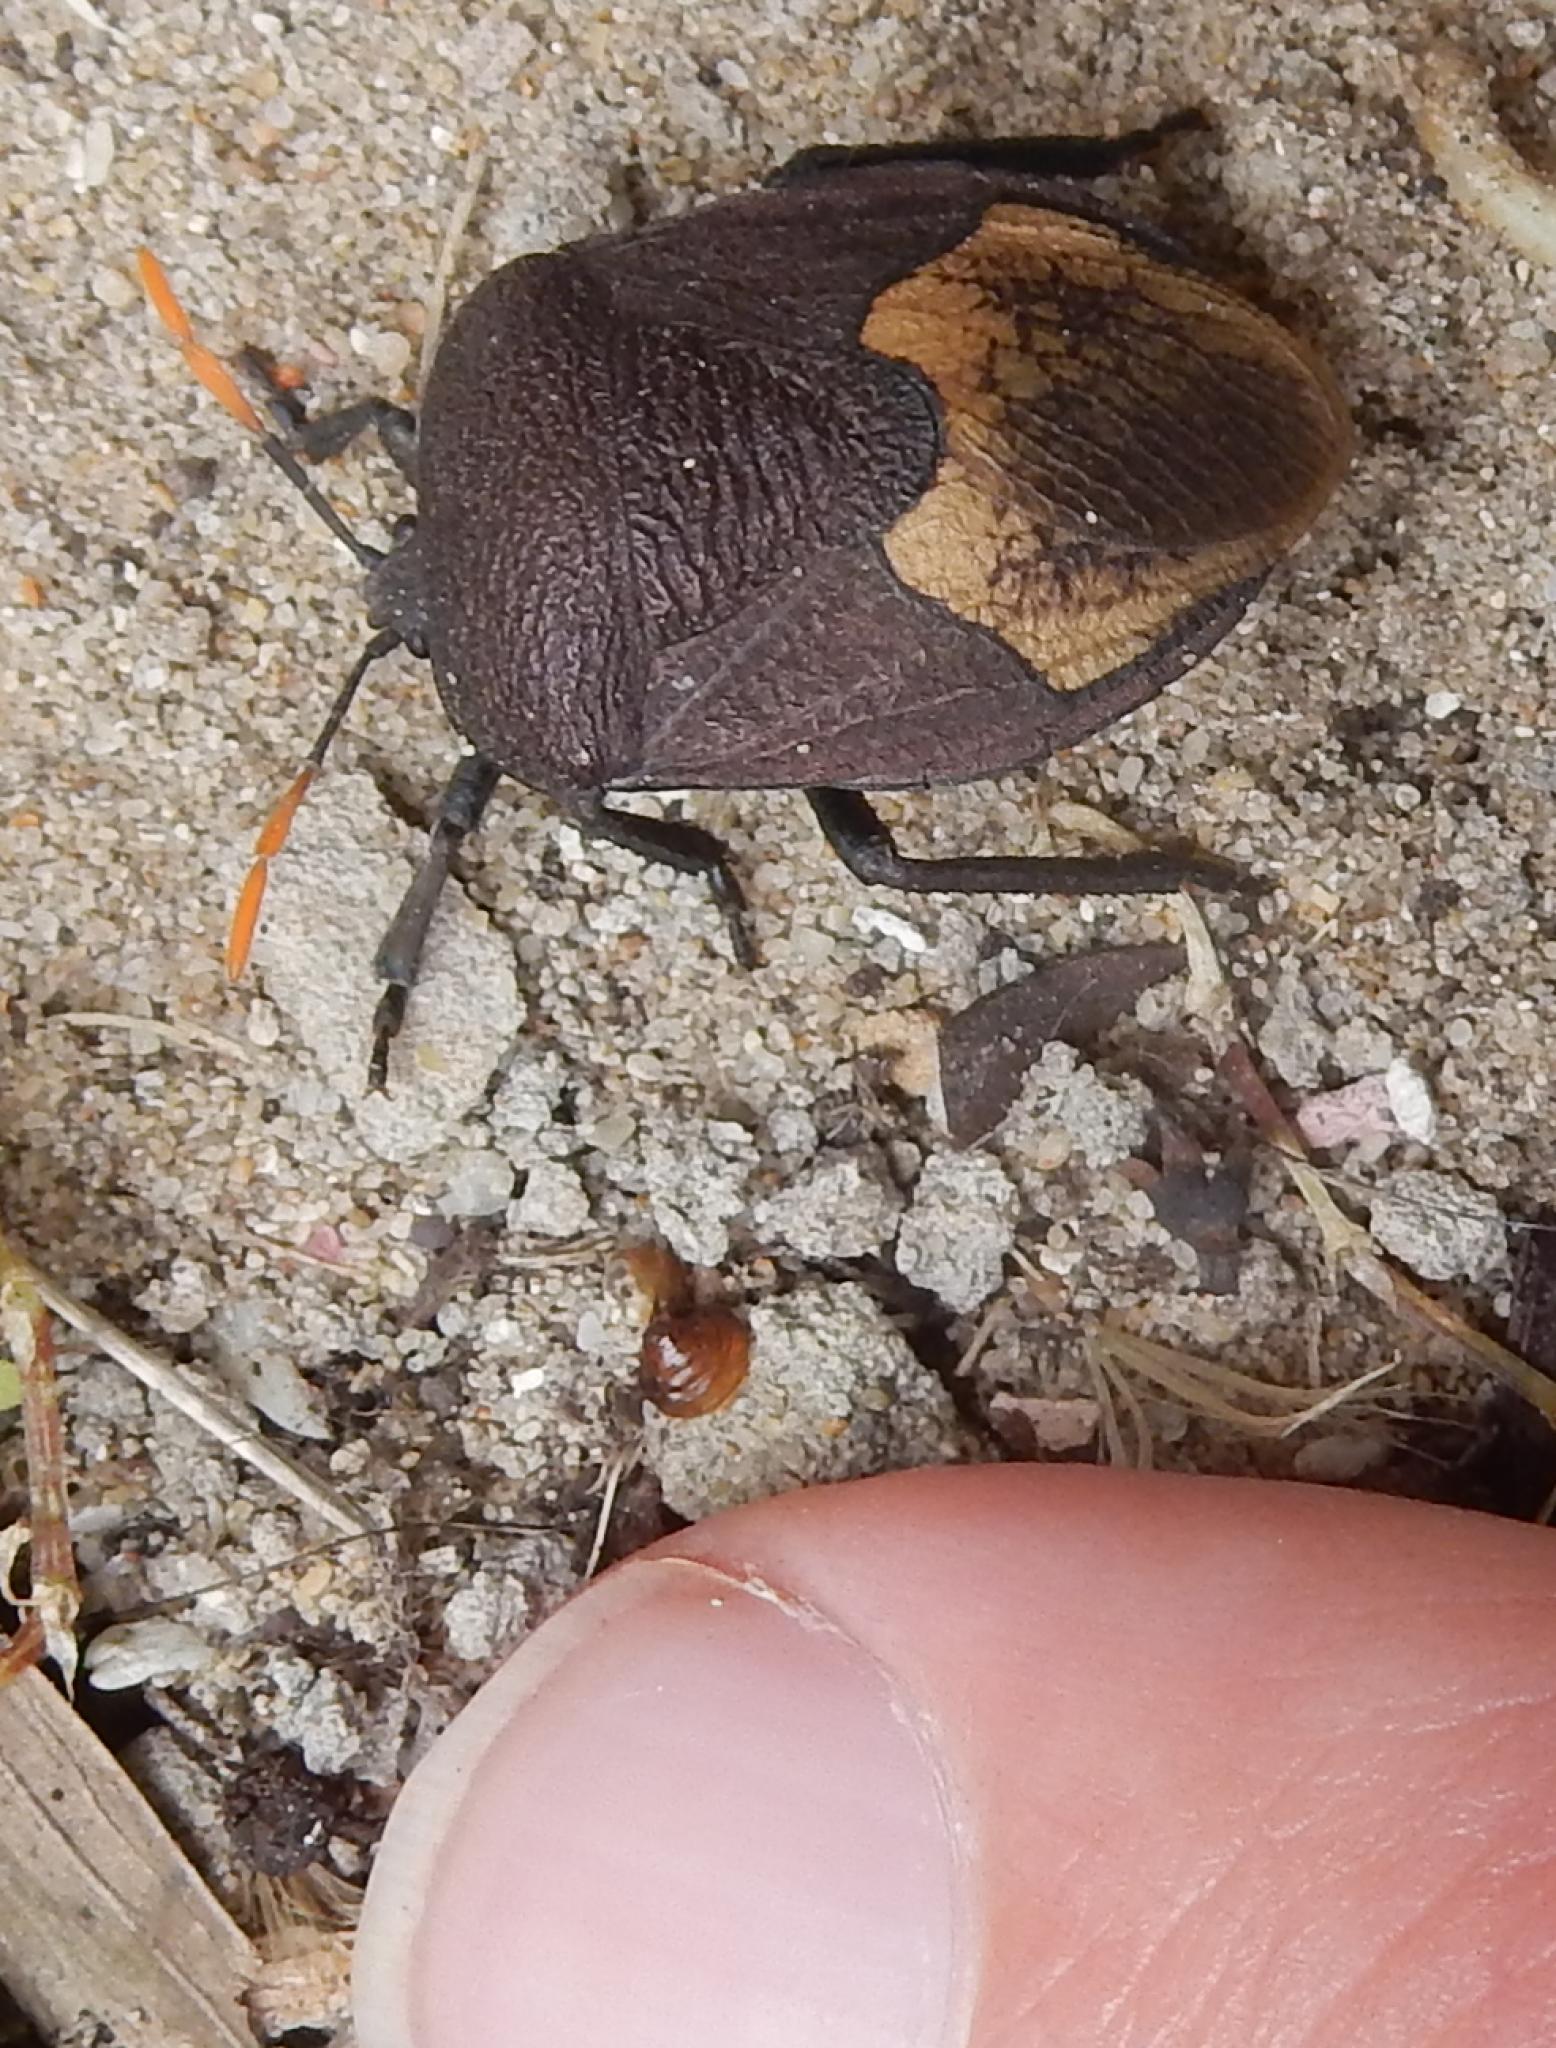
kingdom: Animalia
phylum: Arthropoda
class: Insecta
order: Hemiptera
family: Dinidoridae
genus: Coridius
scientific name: Coridius nubilus
